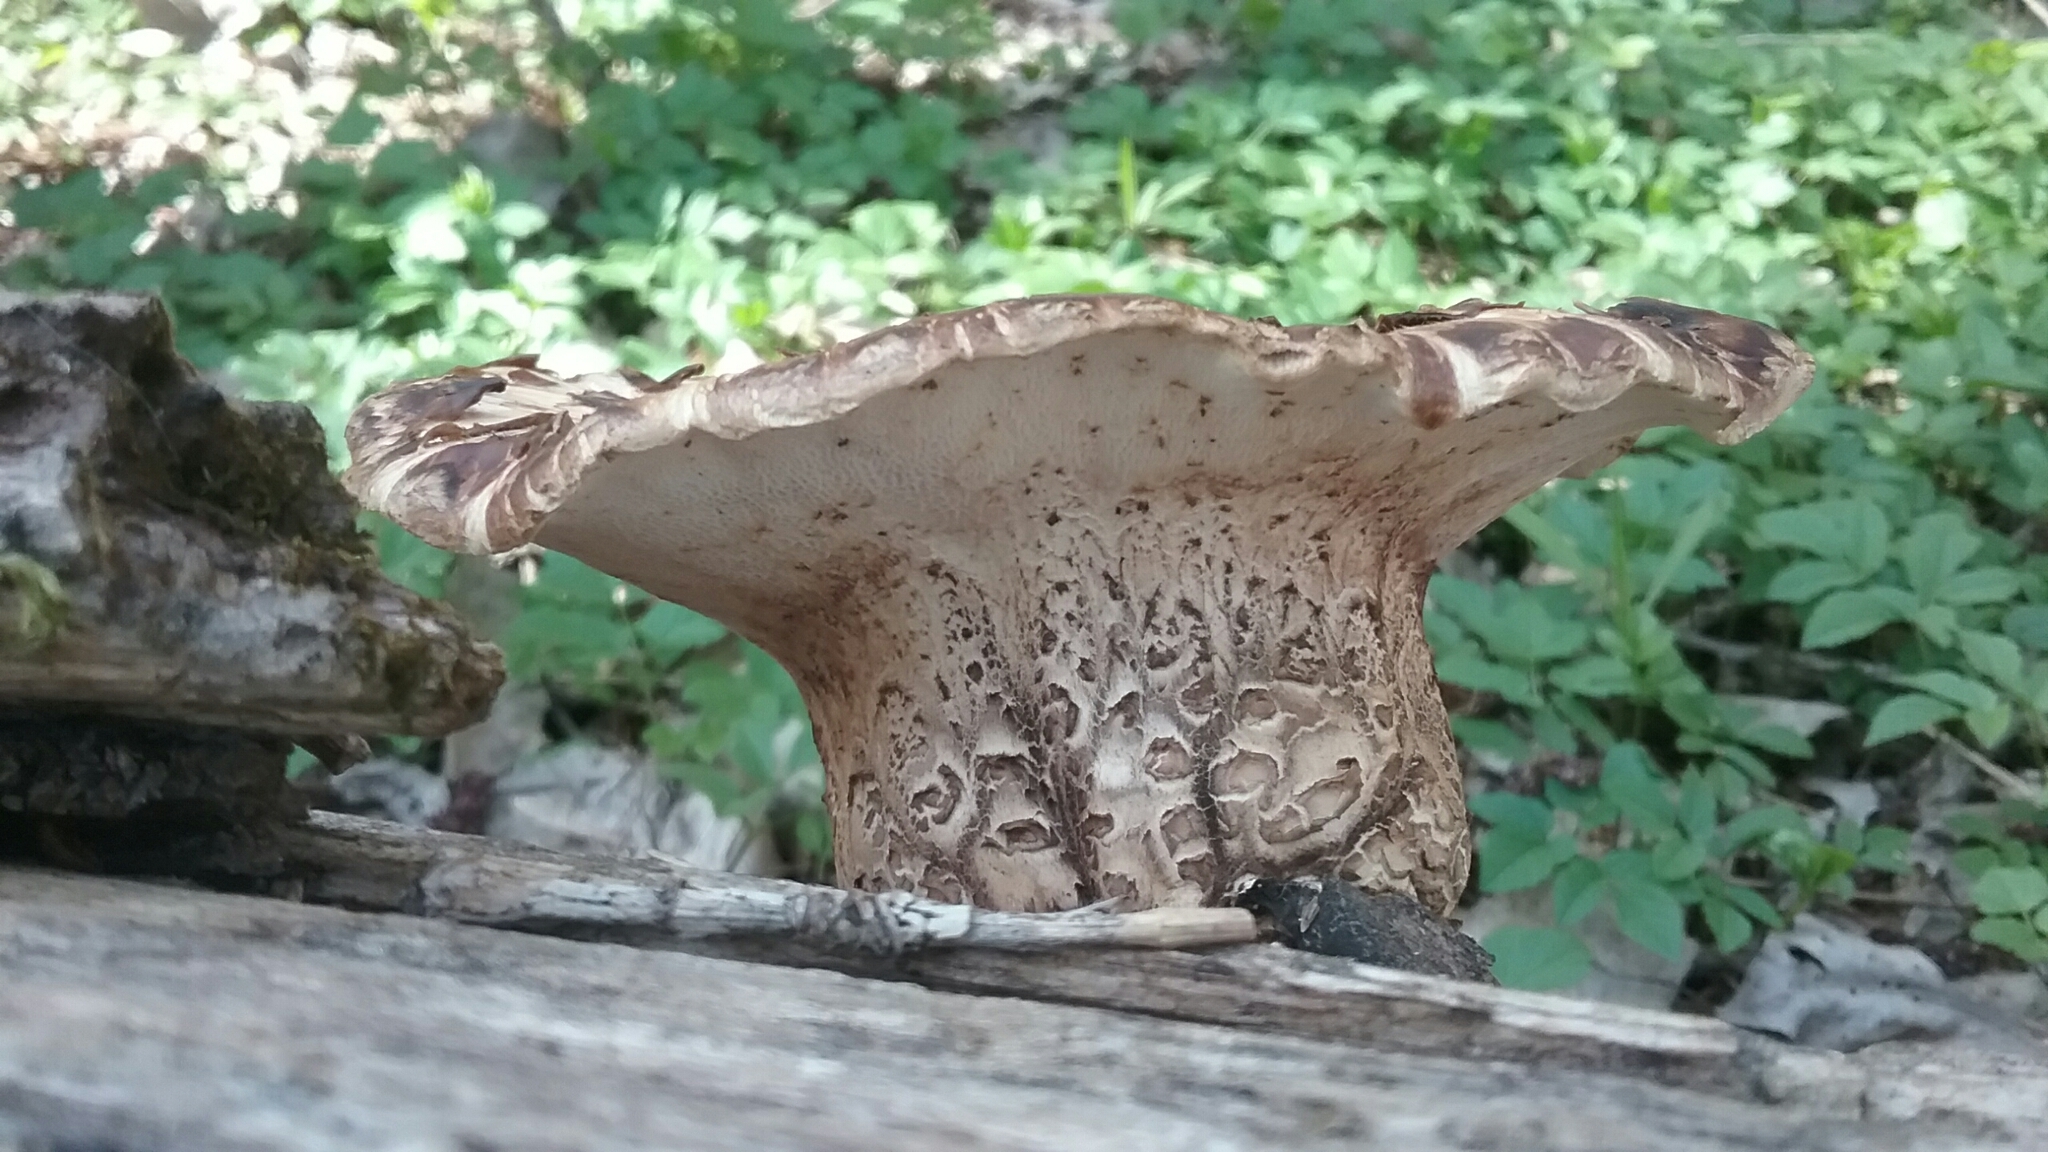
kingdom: Fungi
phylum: Basidiomycota
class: Agaricomycetes
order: Polyporales
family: Polyporaceae
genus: Cerioporus
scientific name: Cerioporus squamosus
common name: Dryad's saddle
